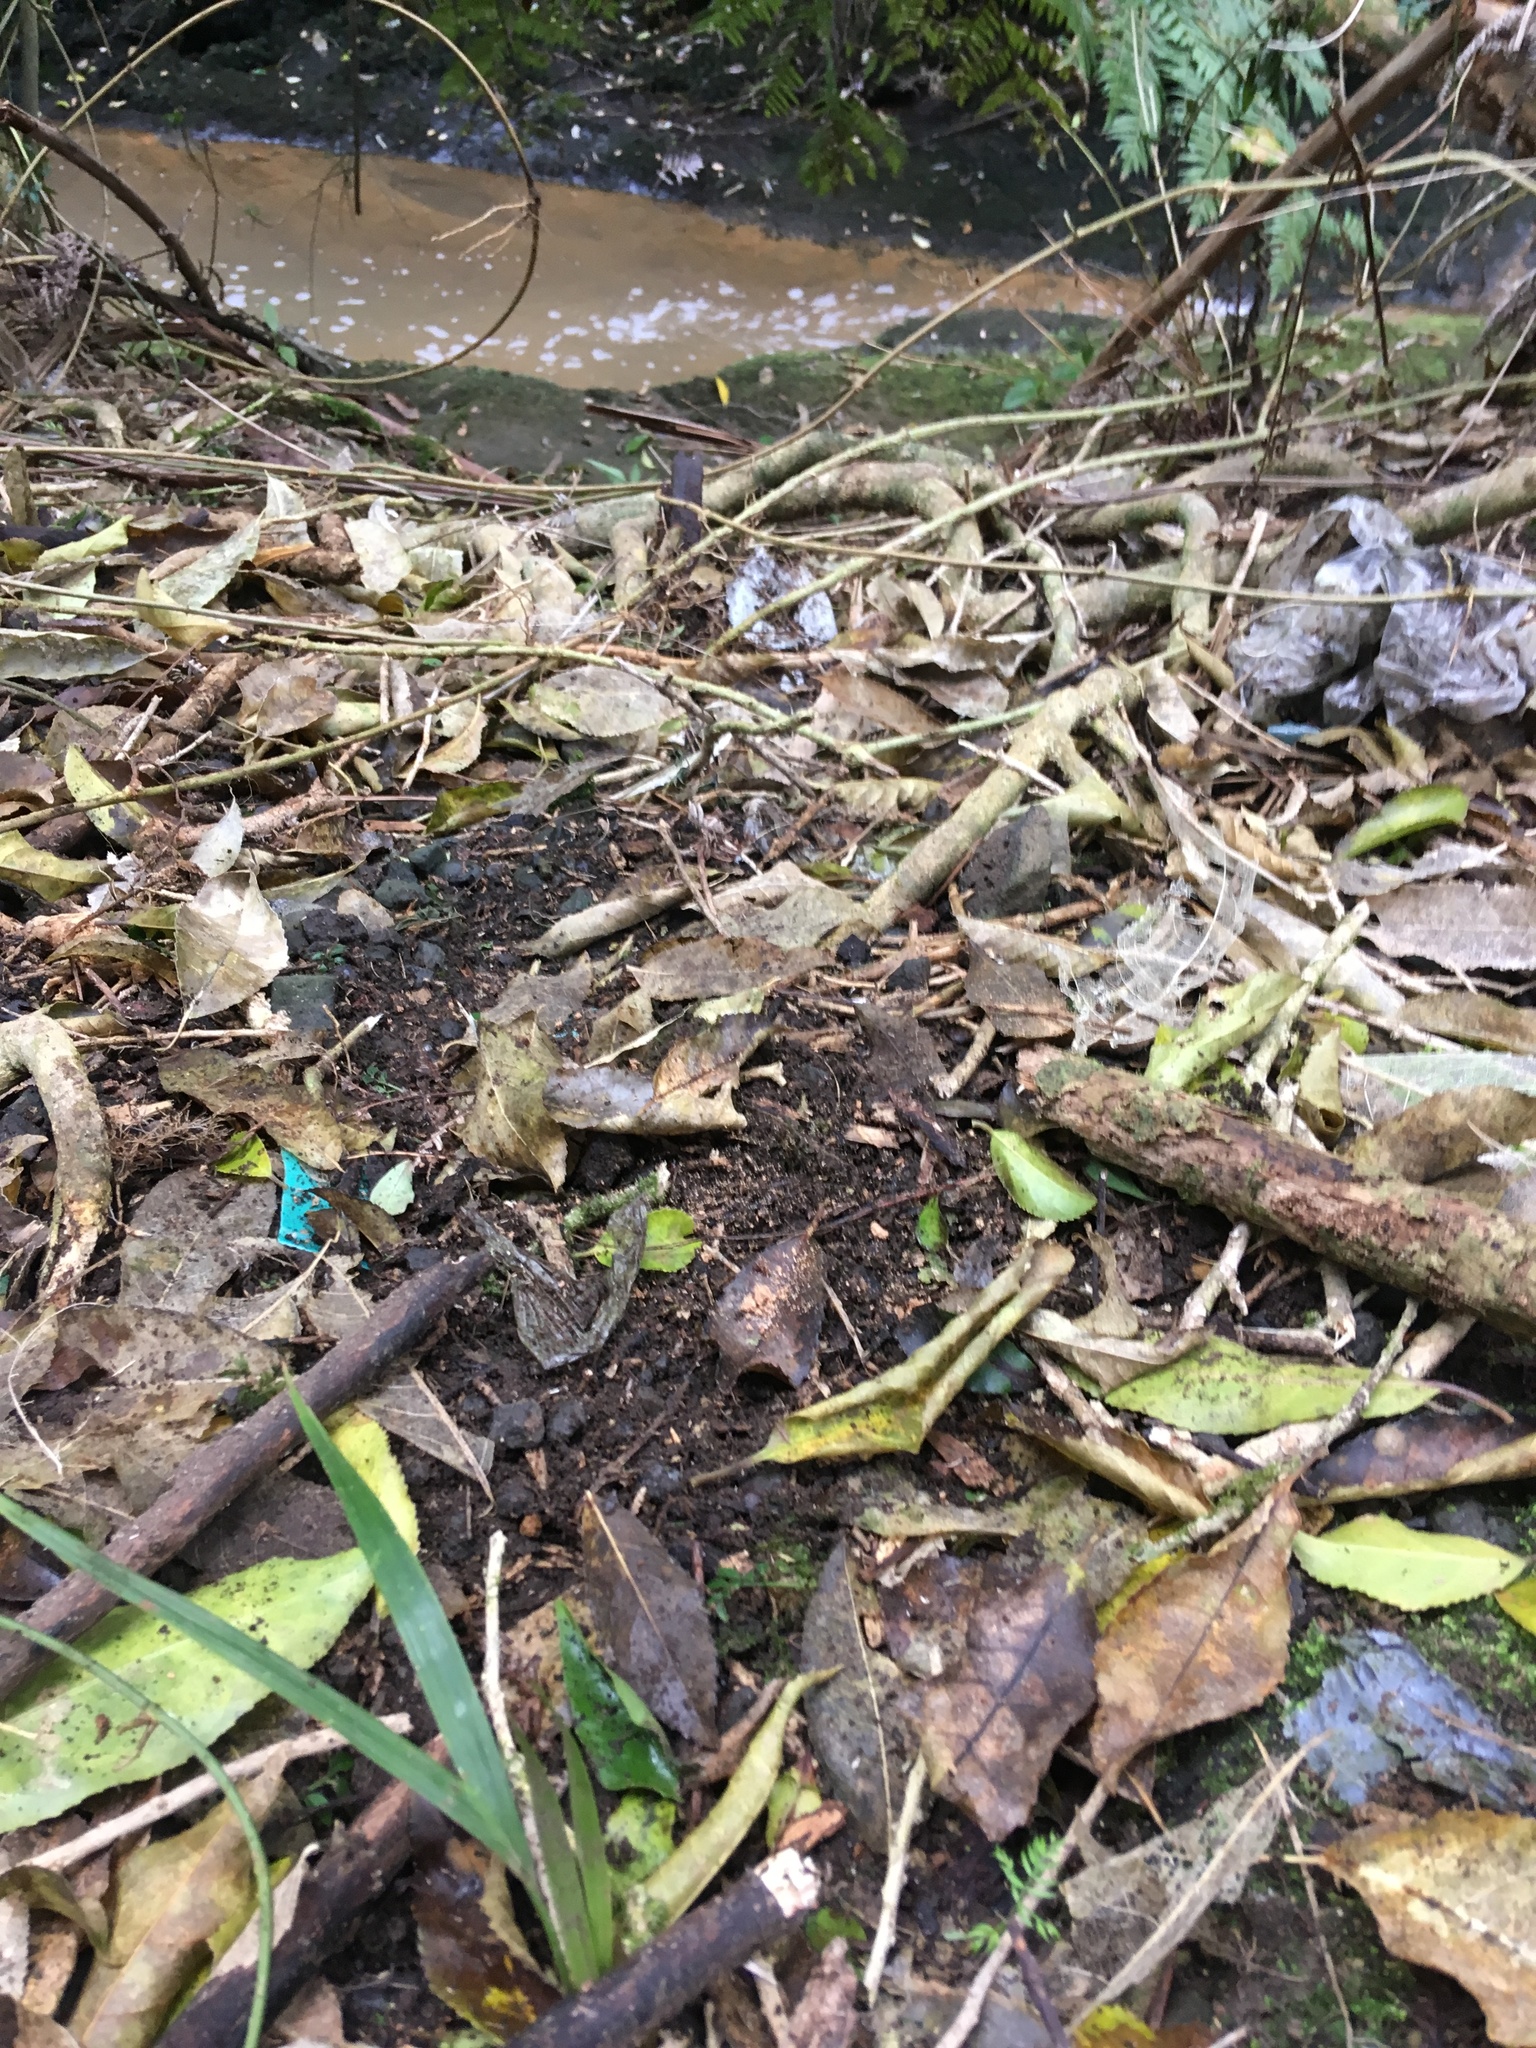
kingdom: Plantae
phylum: Tracheophyta
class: Liliopsida
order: Asparagales
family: Asparagaceae
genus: Asparagus
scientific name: Asparagus scandens
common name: Asparagus-fern
